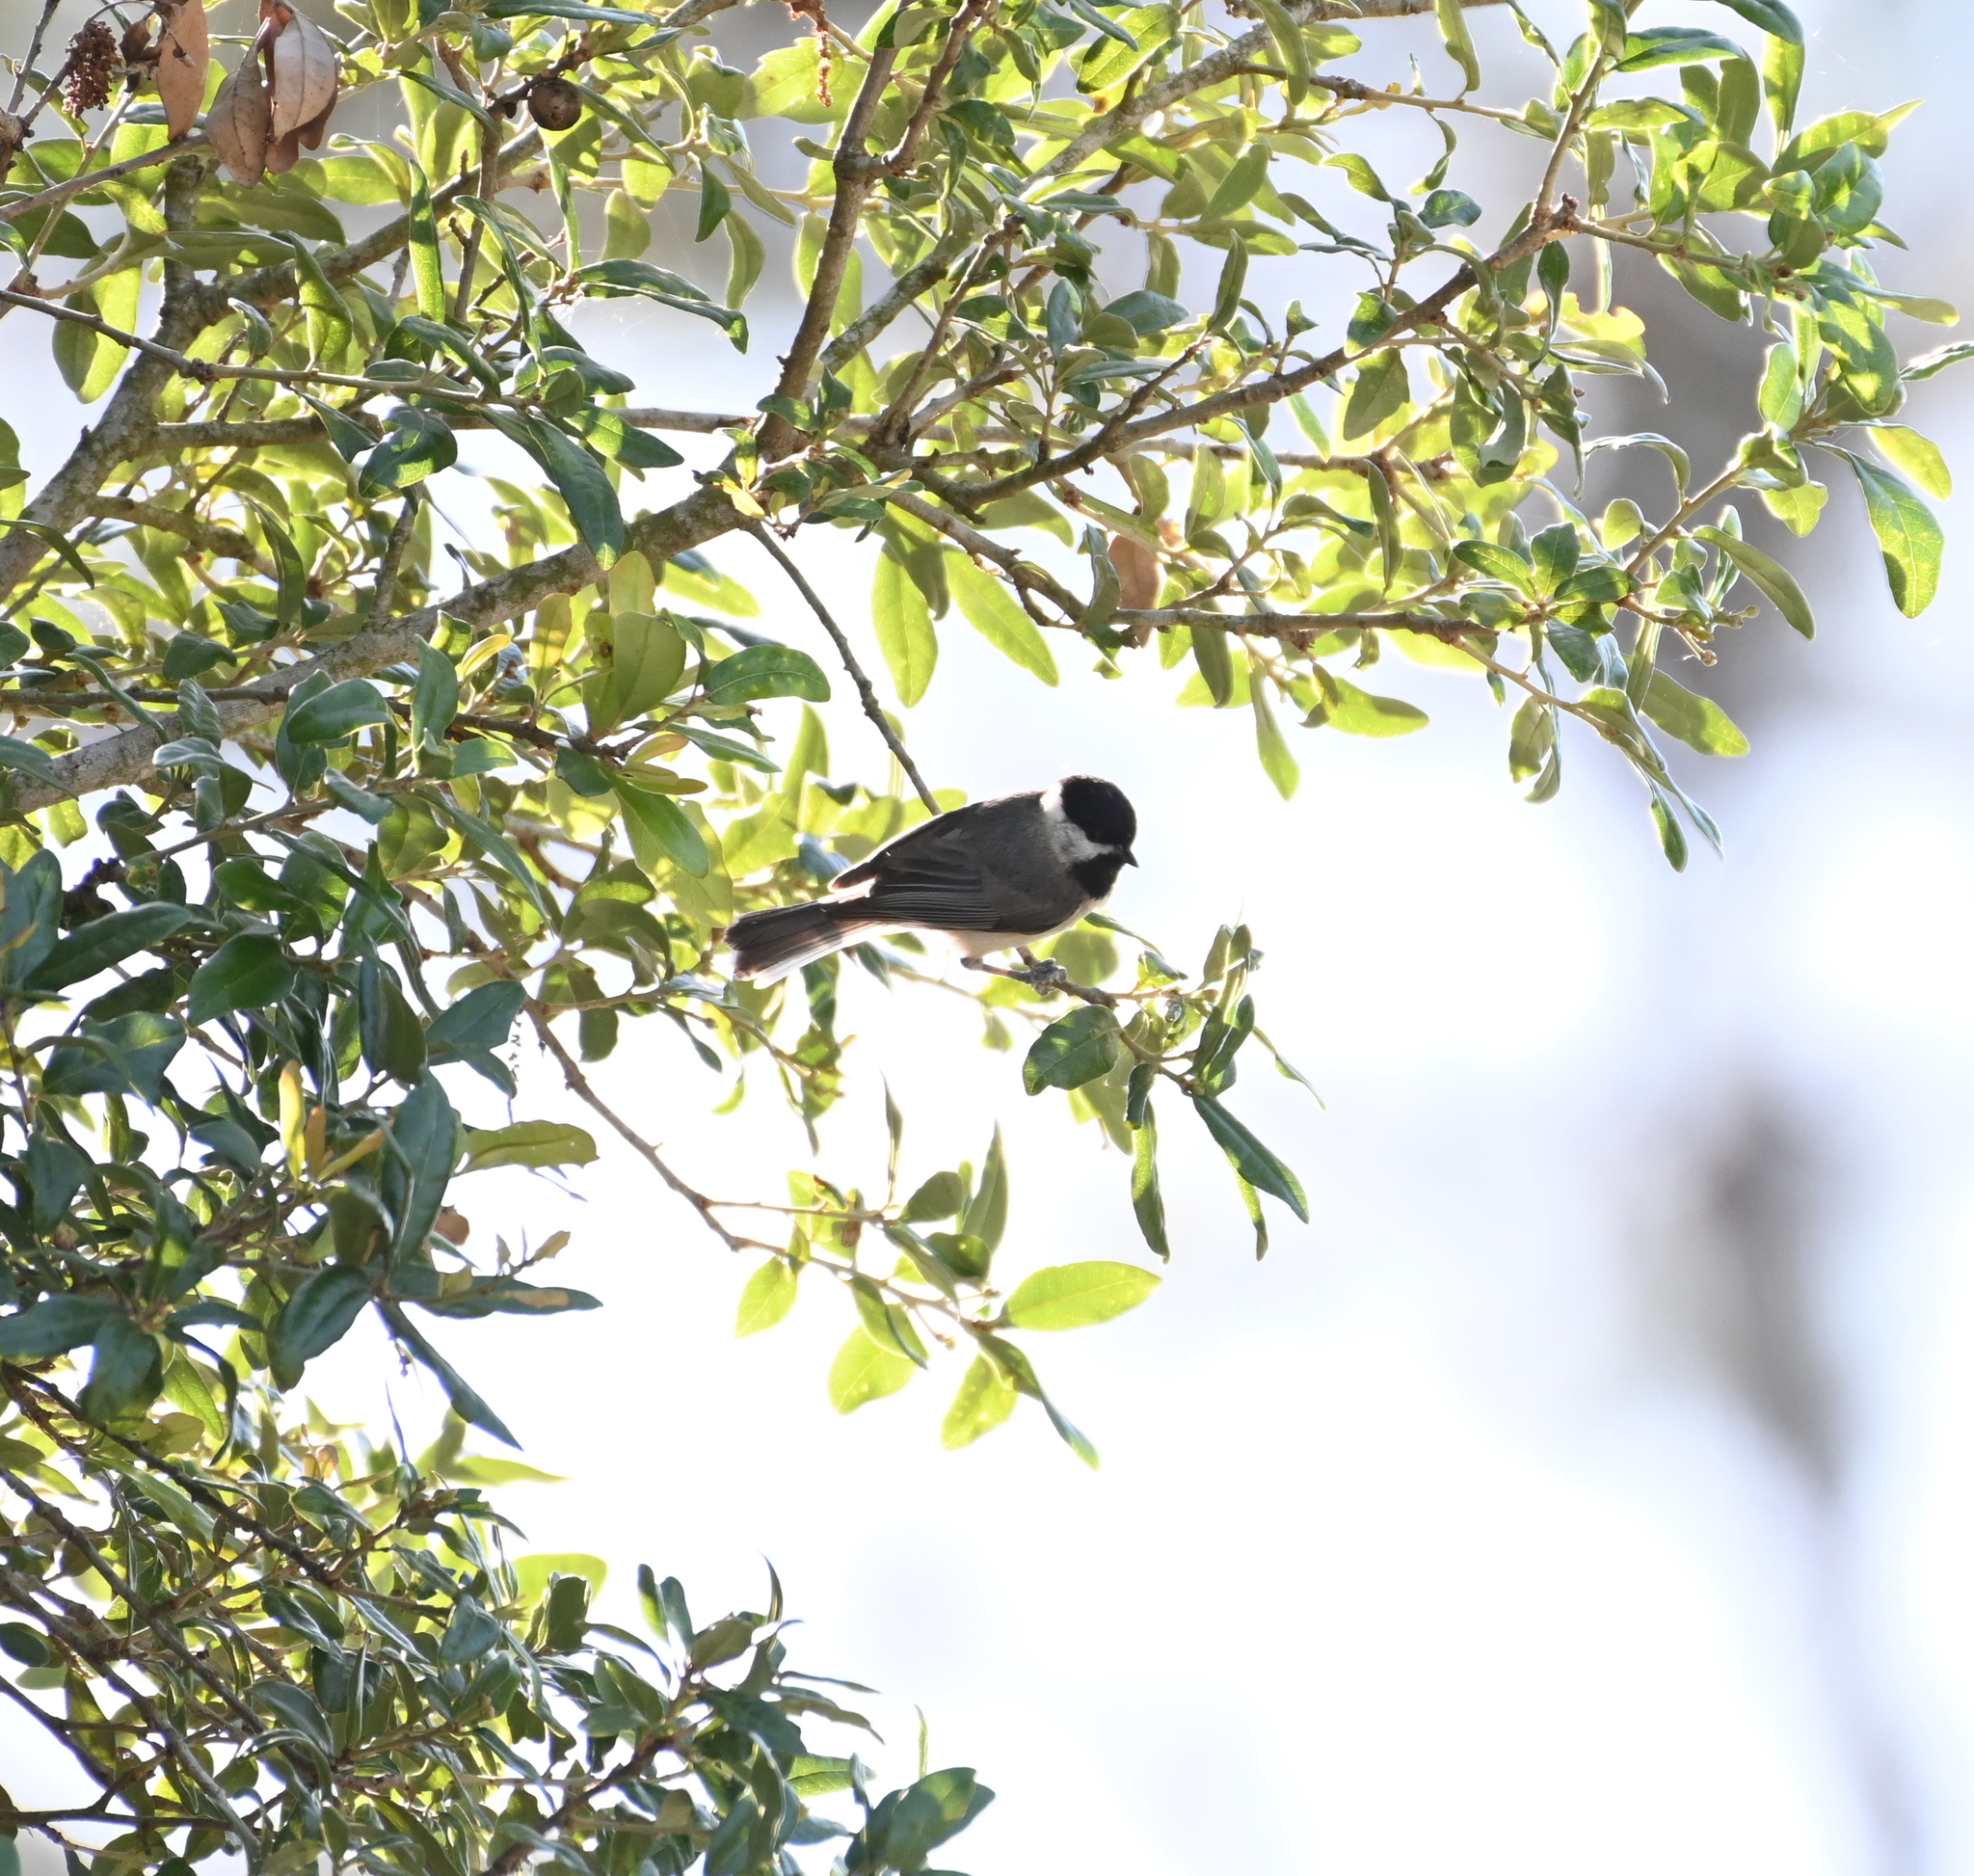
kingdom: Animalia
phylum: Chordata
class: Aves
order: Passeriformes
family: Paridae
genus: Poecile
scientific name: Poecile carolinensis
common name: Carolina chickadee
